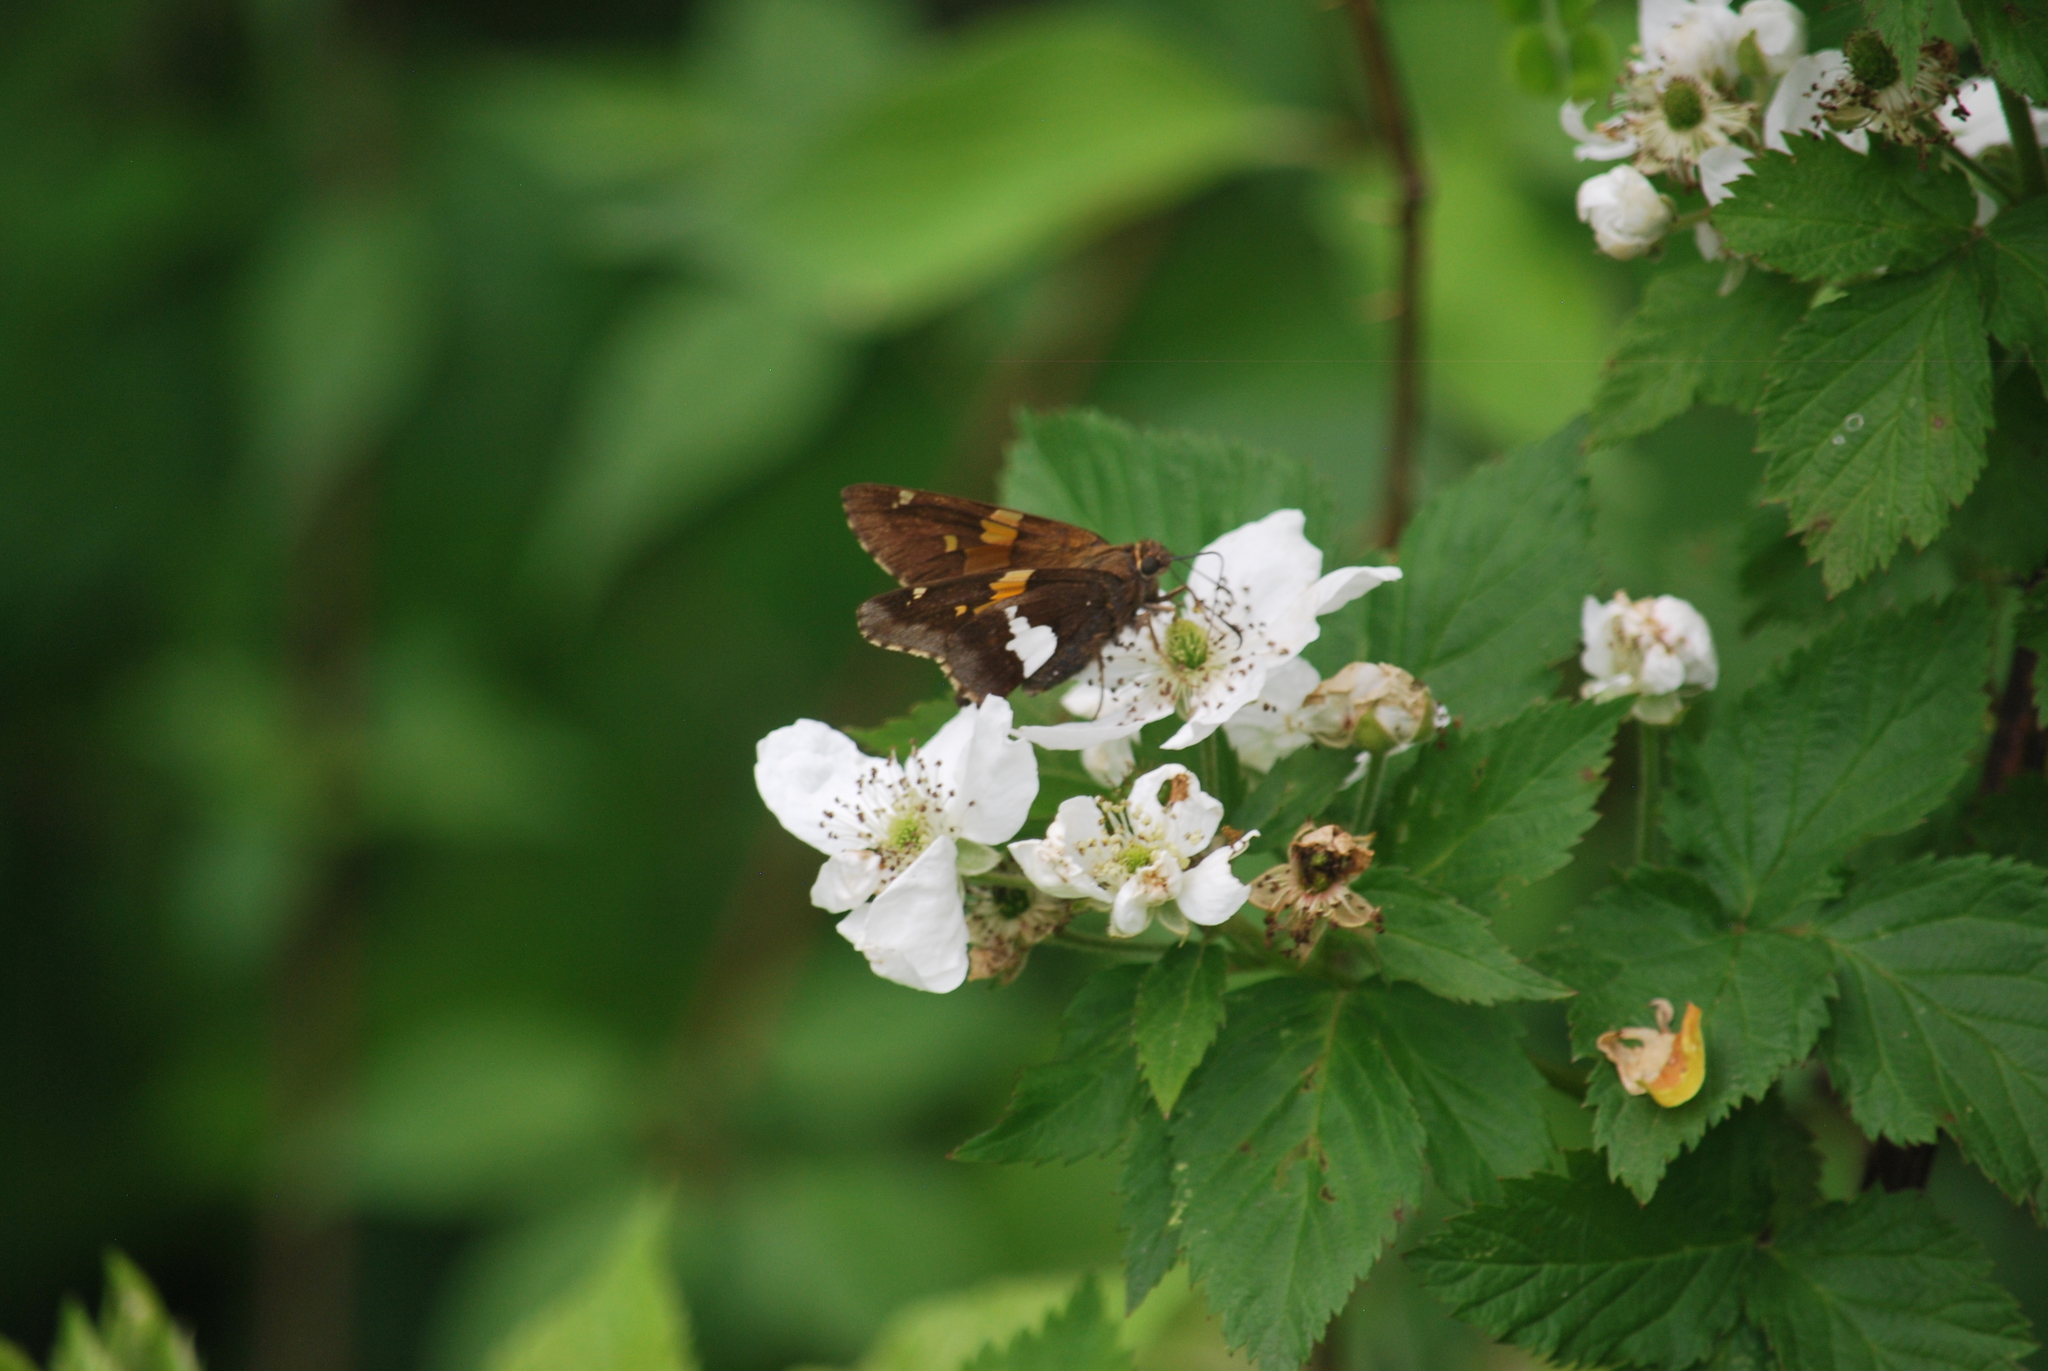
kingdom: Animalia
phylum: Arthropoda
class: Insecta
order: Lepidoptera
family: Hesperiidae
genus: Epargyreus
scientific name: Epargyreus clarus
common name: Silver-spotted skipper
